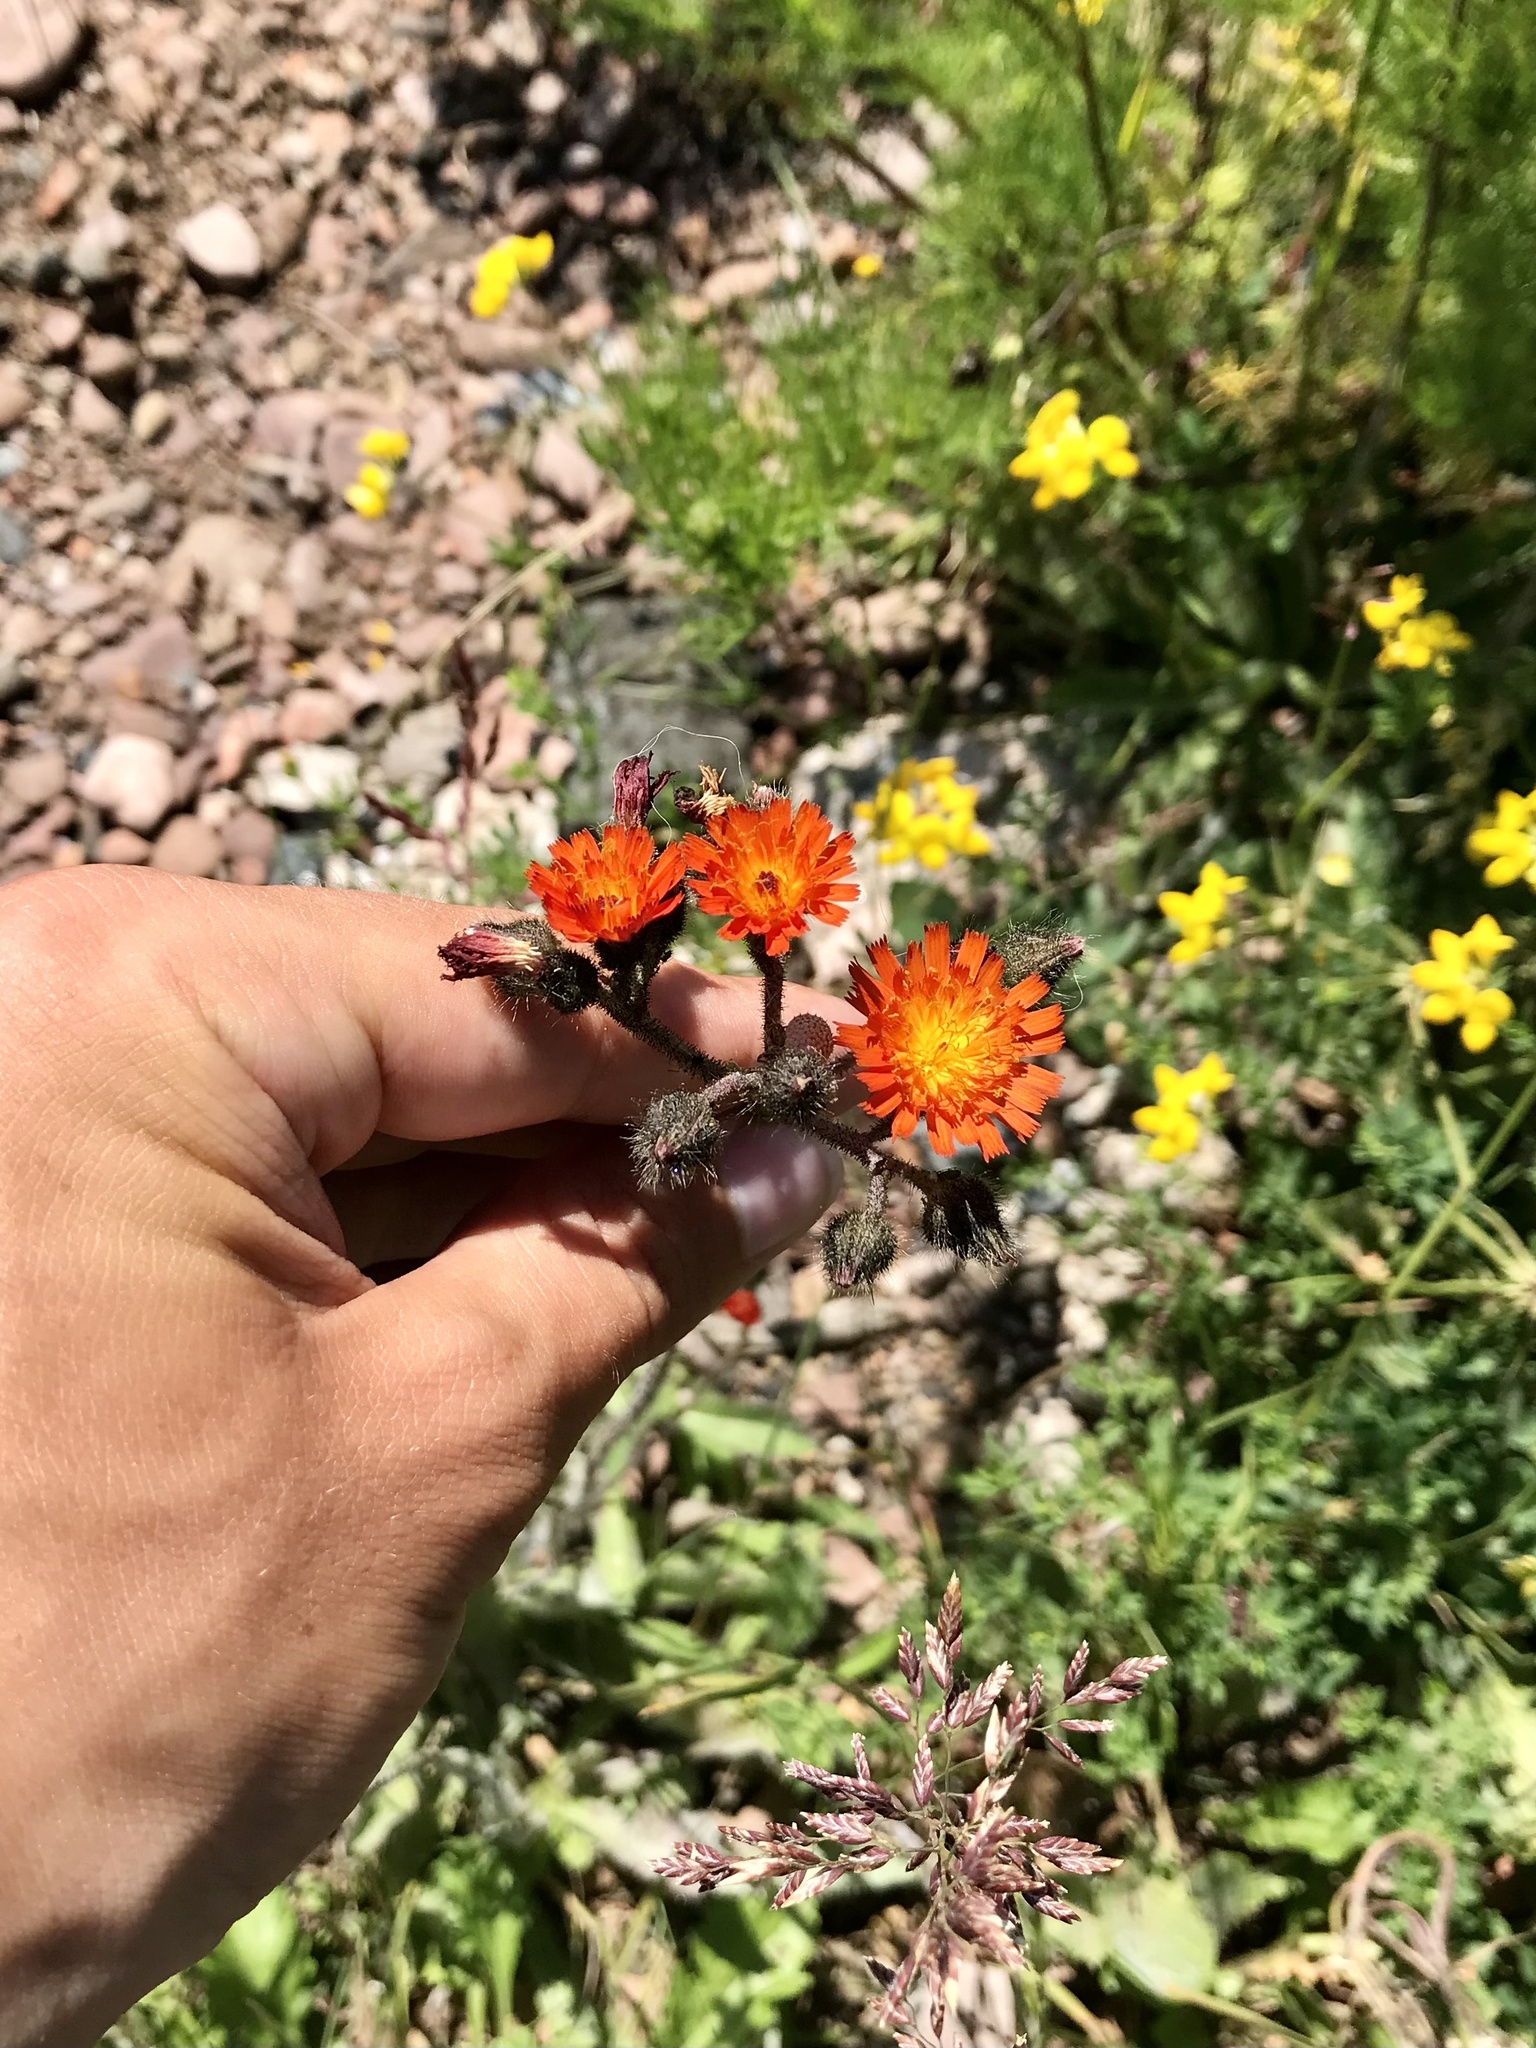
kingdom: Plantae
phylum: Tracheophyta
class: Magnoliopsida
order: Asterales
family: Asteraceae
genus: Pilosella
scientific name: Pilosella aurantiaca
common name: Fox-and-cubs
